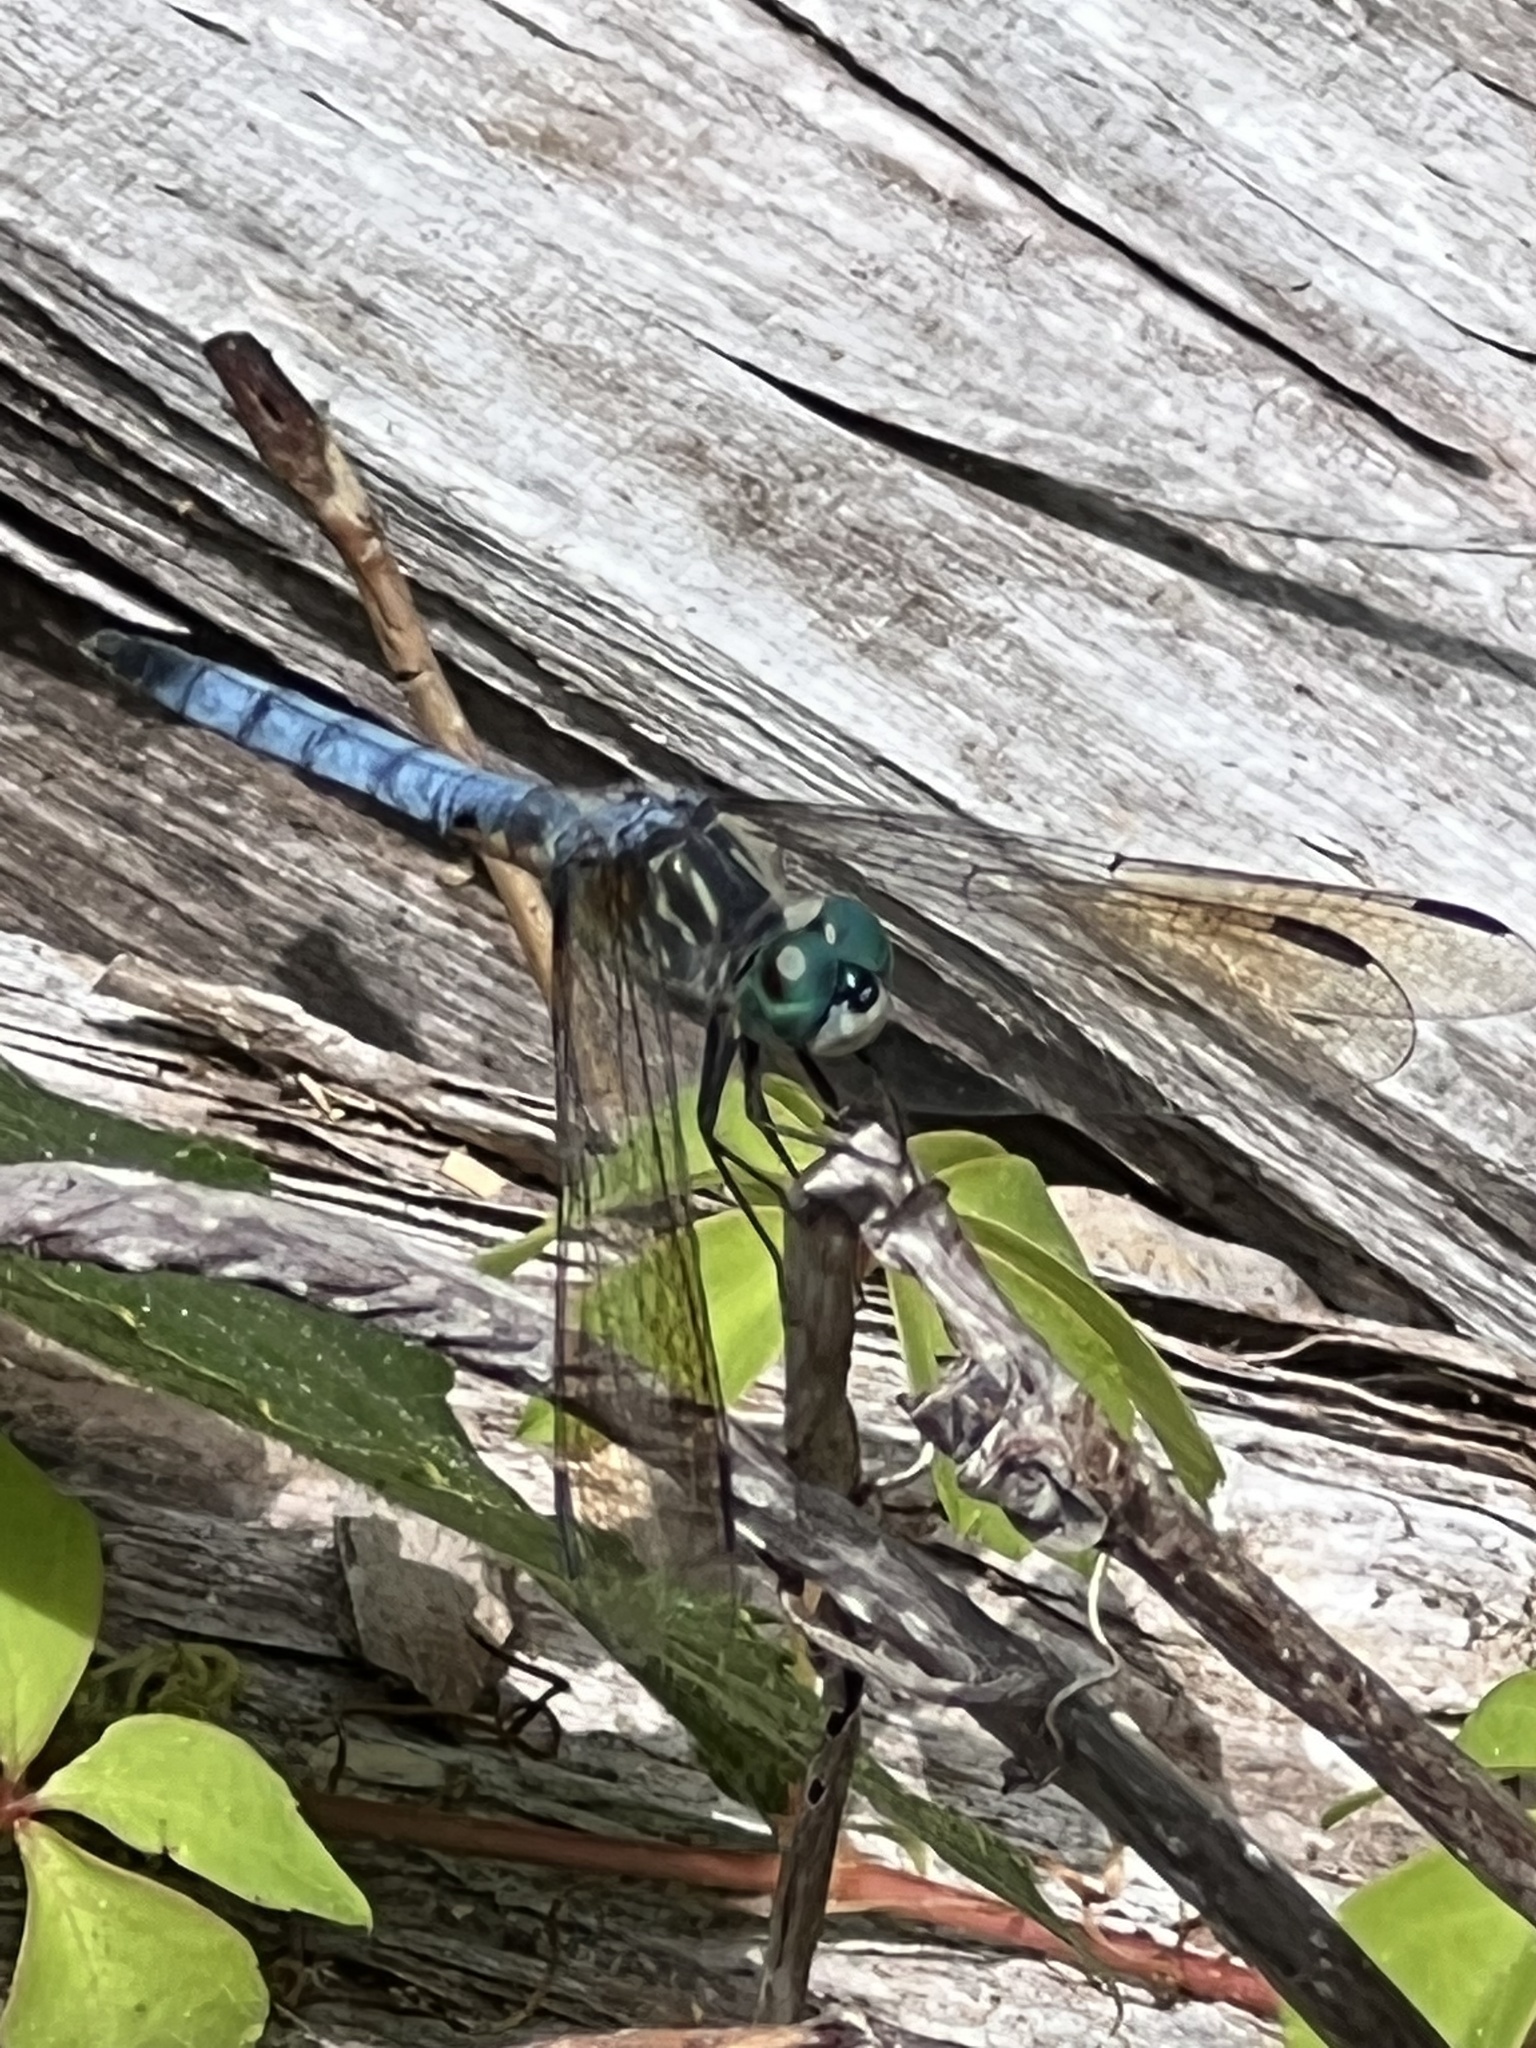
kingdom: Animalia
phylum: Arthropoda
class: Insecta
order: Odonata
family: Libellulidae
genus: Pachydiplax
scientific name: Pachydiplax longipennis
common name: Blue dasher
